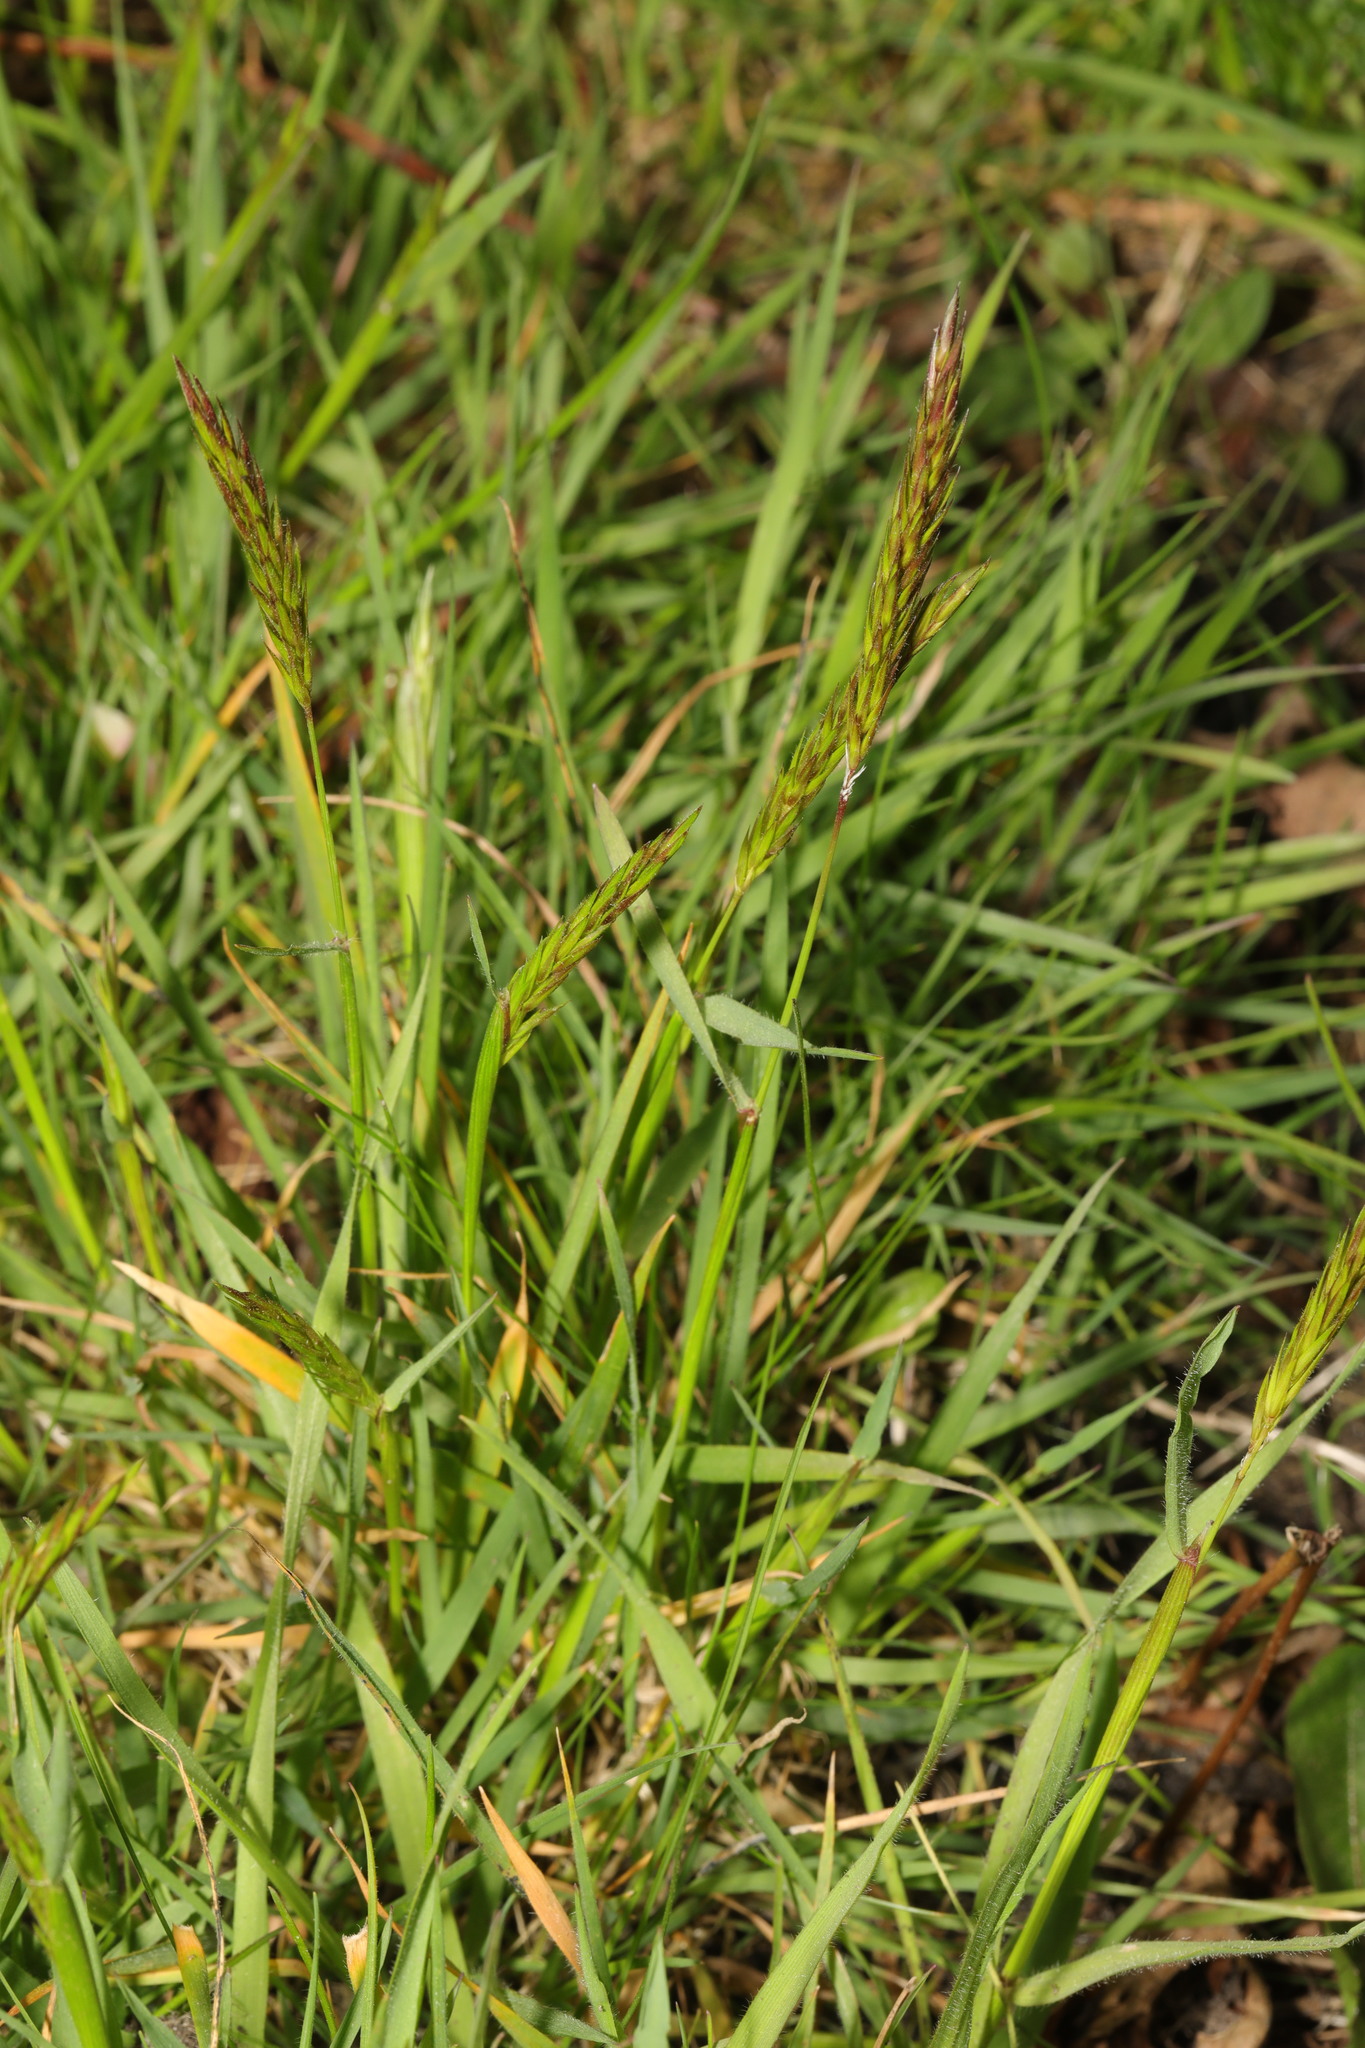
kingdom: Plantae
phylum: Tracheophyta
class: Liliopsida
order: Poales
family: Poaceae
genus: Anthoxanthum
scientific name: Anthoxanthum odoratum
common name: Sweet vernalgrass
